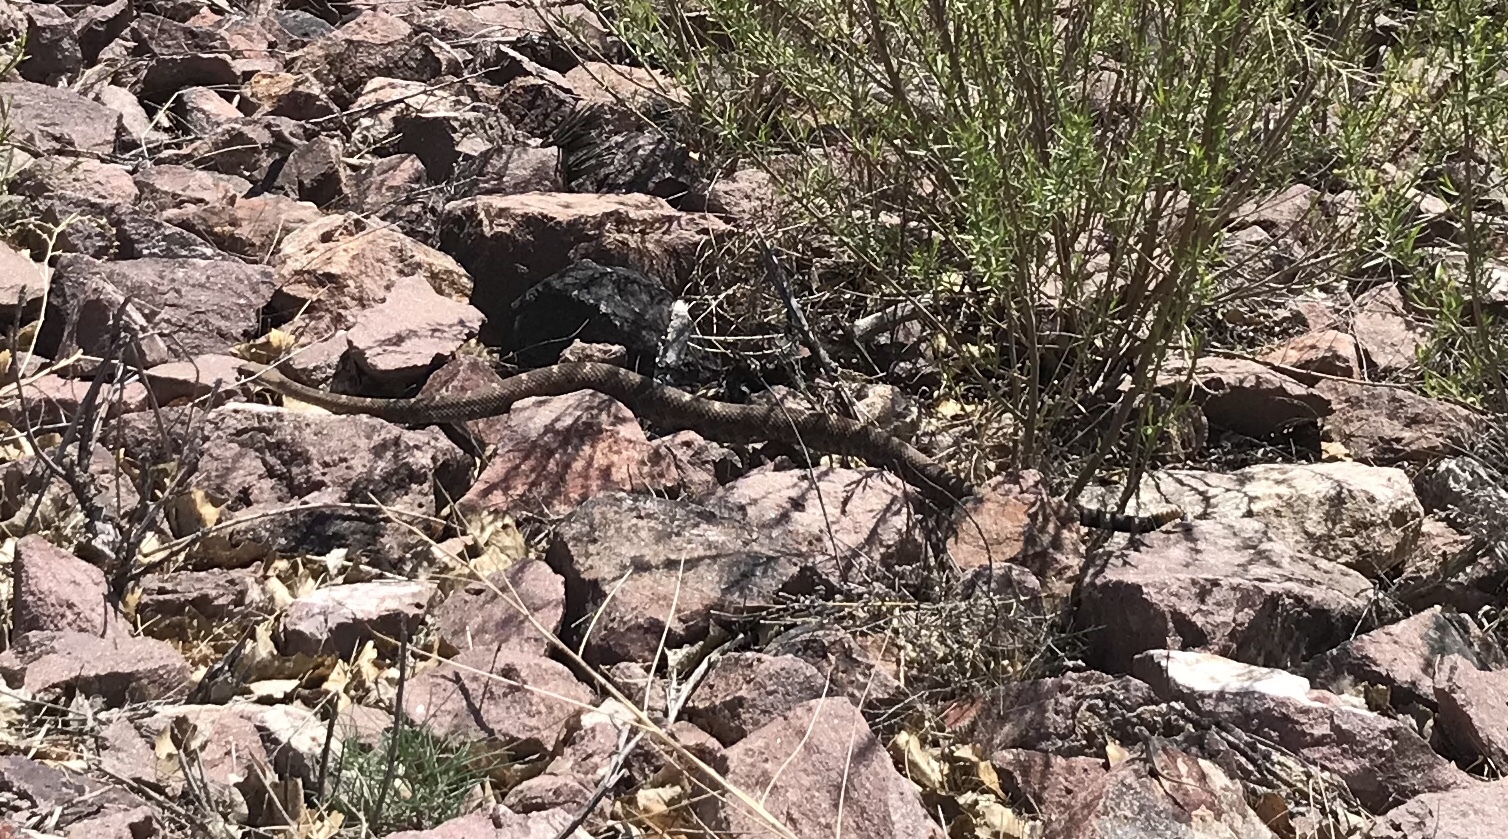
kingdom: Animalia
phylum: Chordata
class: Squamata
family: Viperidae
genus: Crotalus
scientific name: Crotalus atrox
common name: Western diamond-backed rattlesnake
